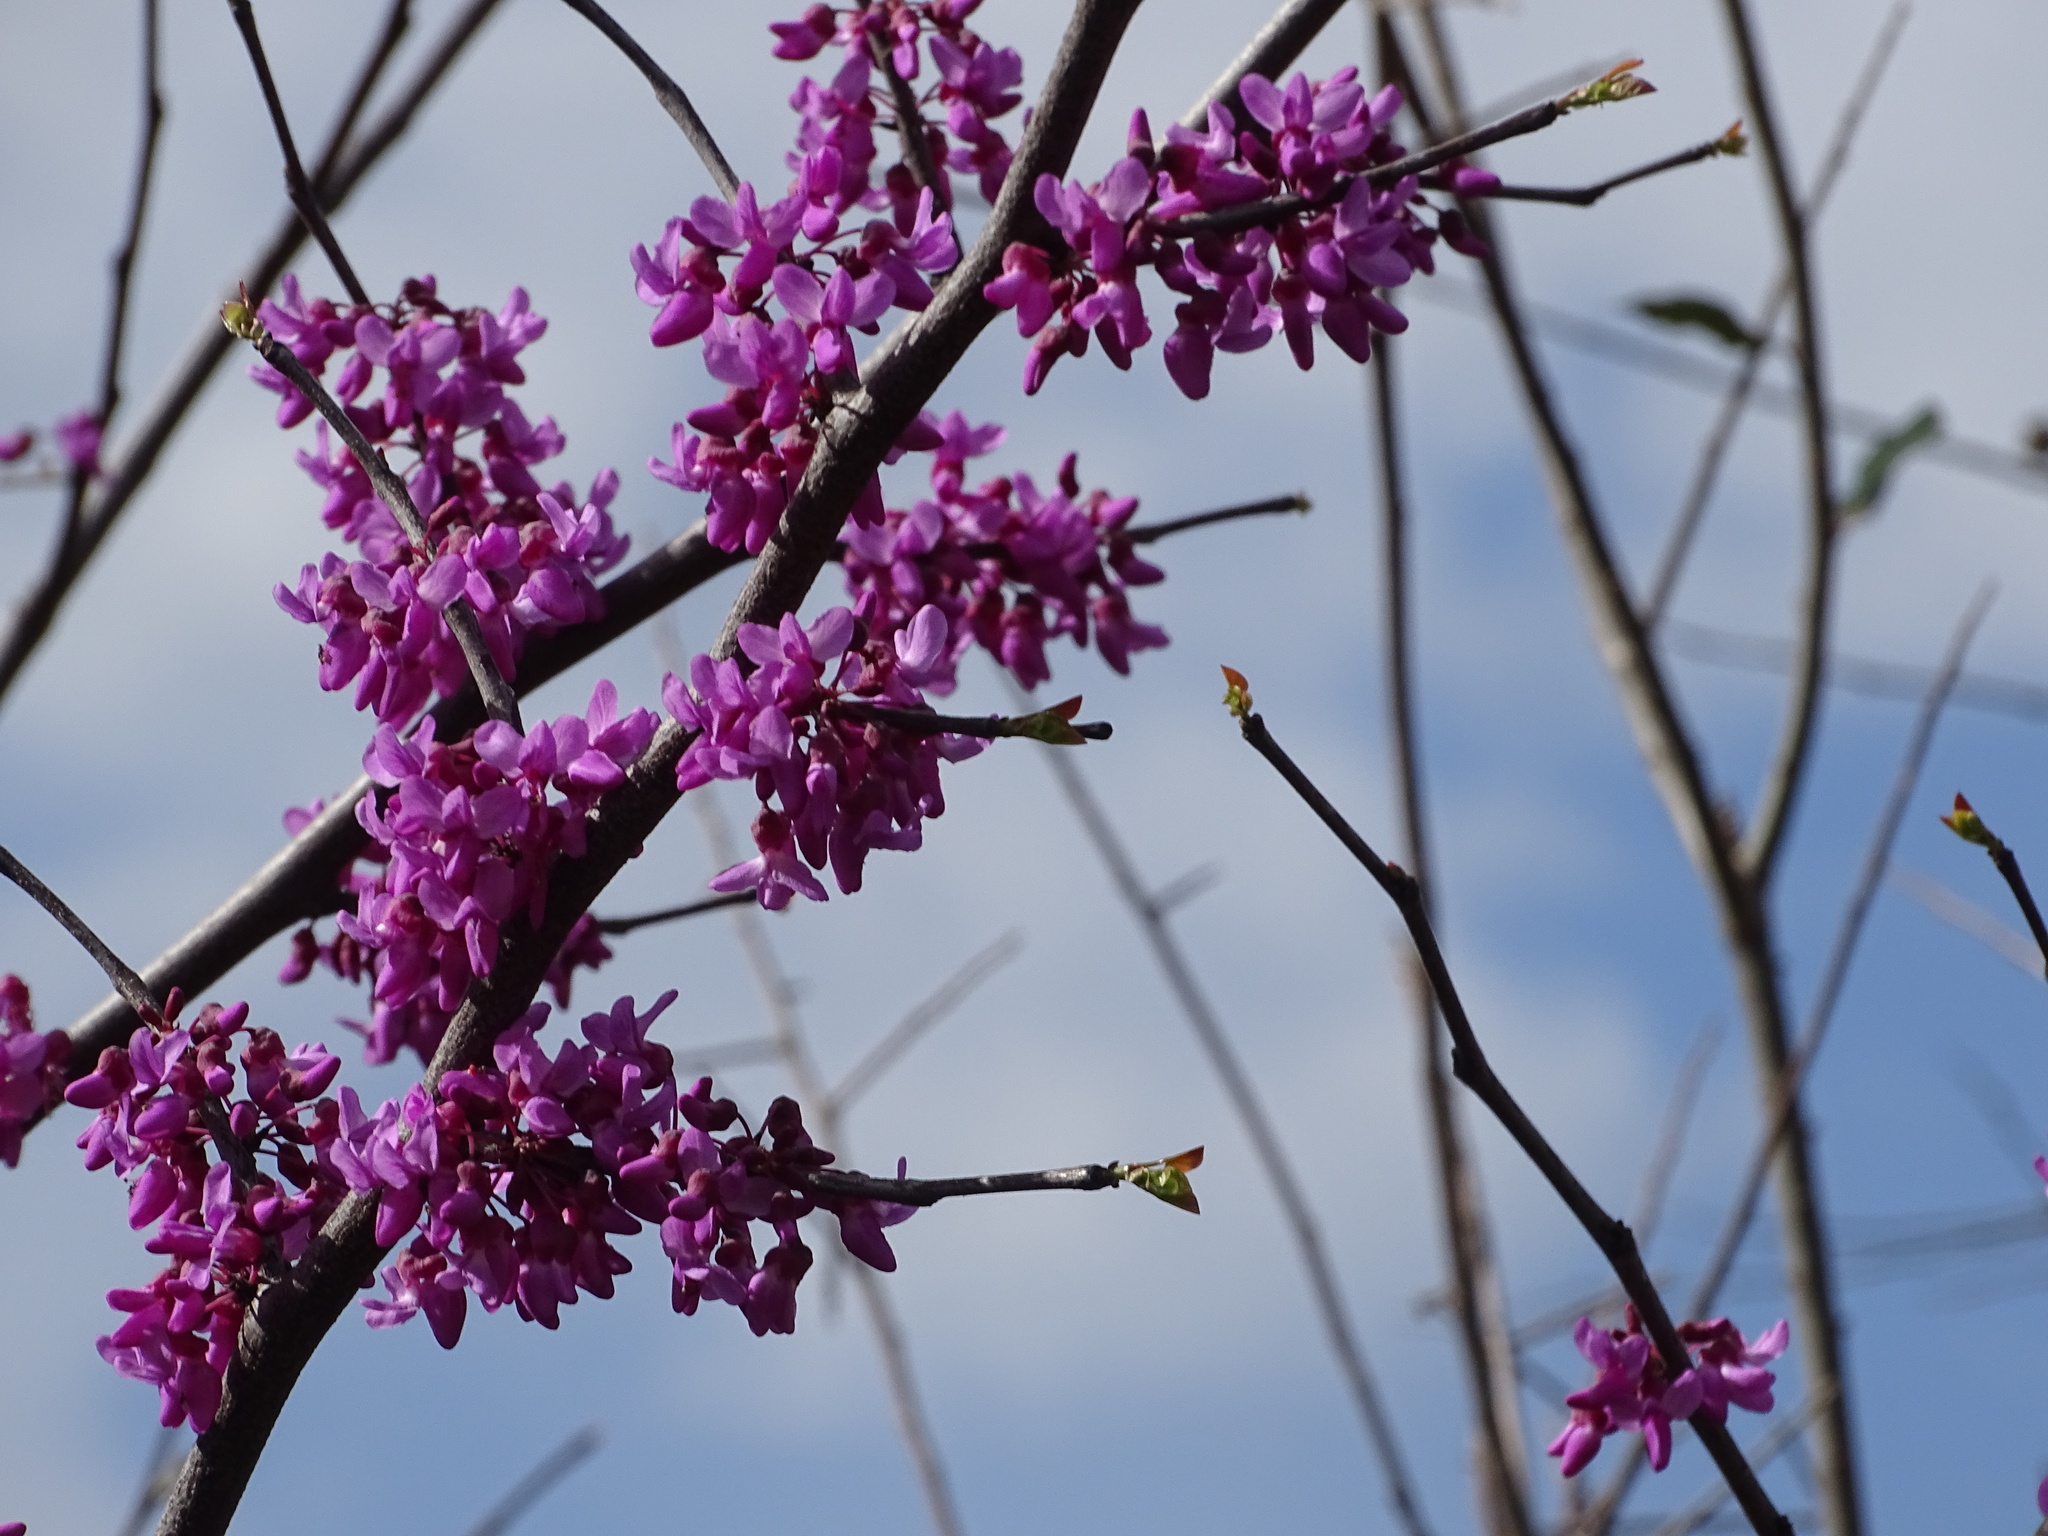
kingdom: Plantae
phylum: Tracheophyta
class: Magnoliopsida
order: Fabales
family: Fabaceae
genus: Cercis
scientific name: Cercis canadensis
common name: Eastern redbud
